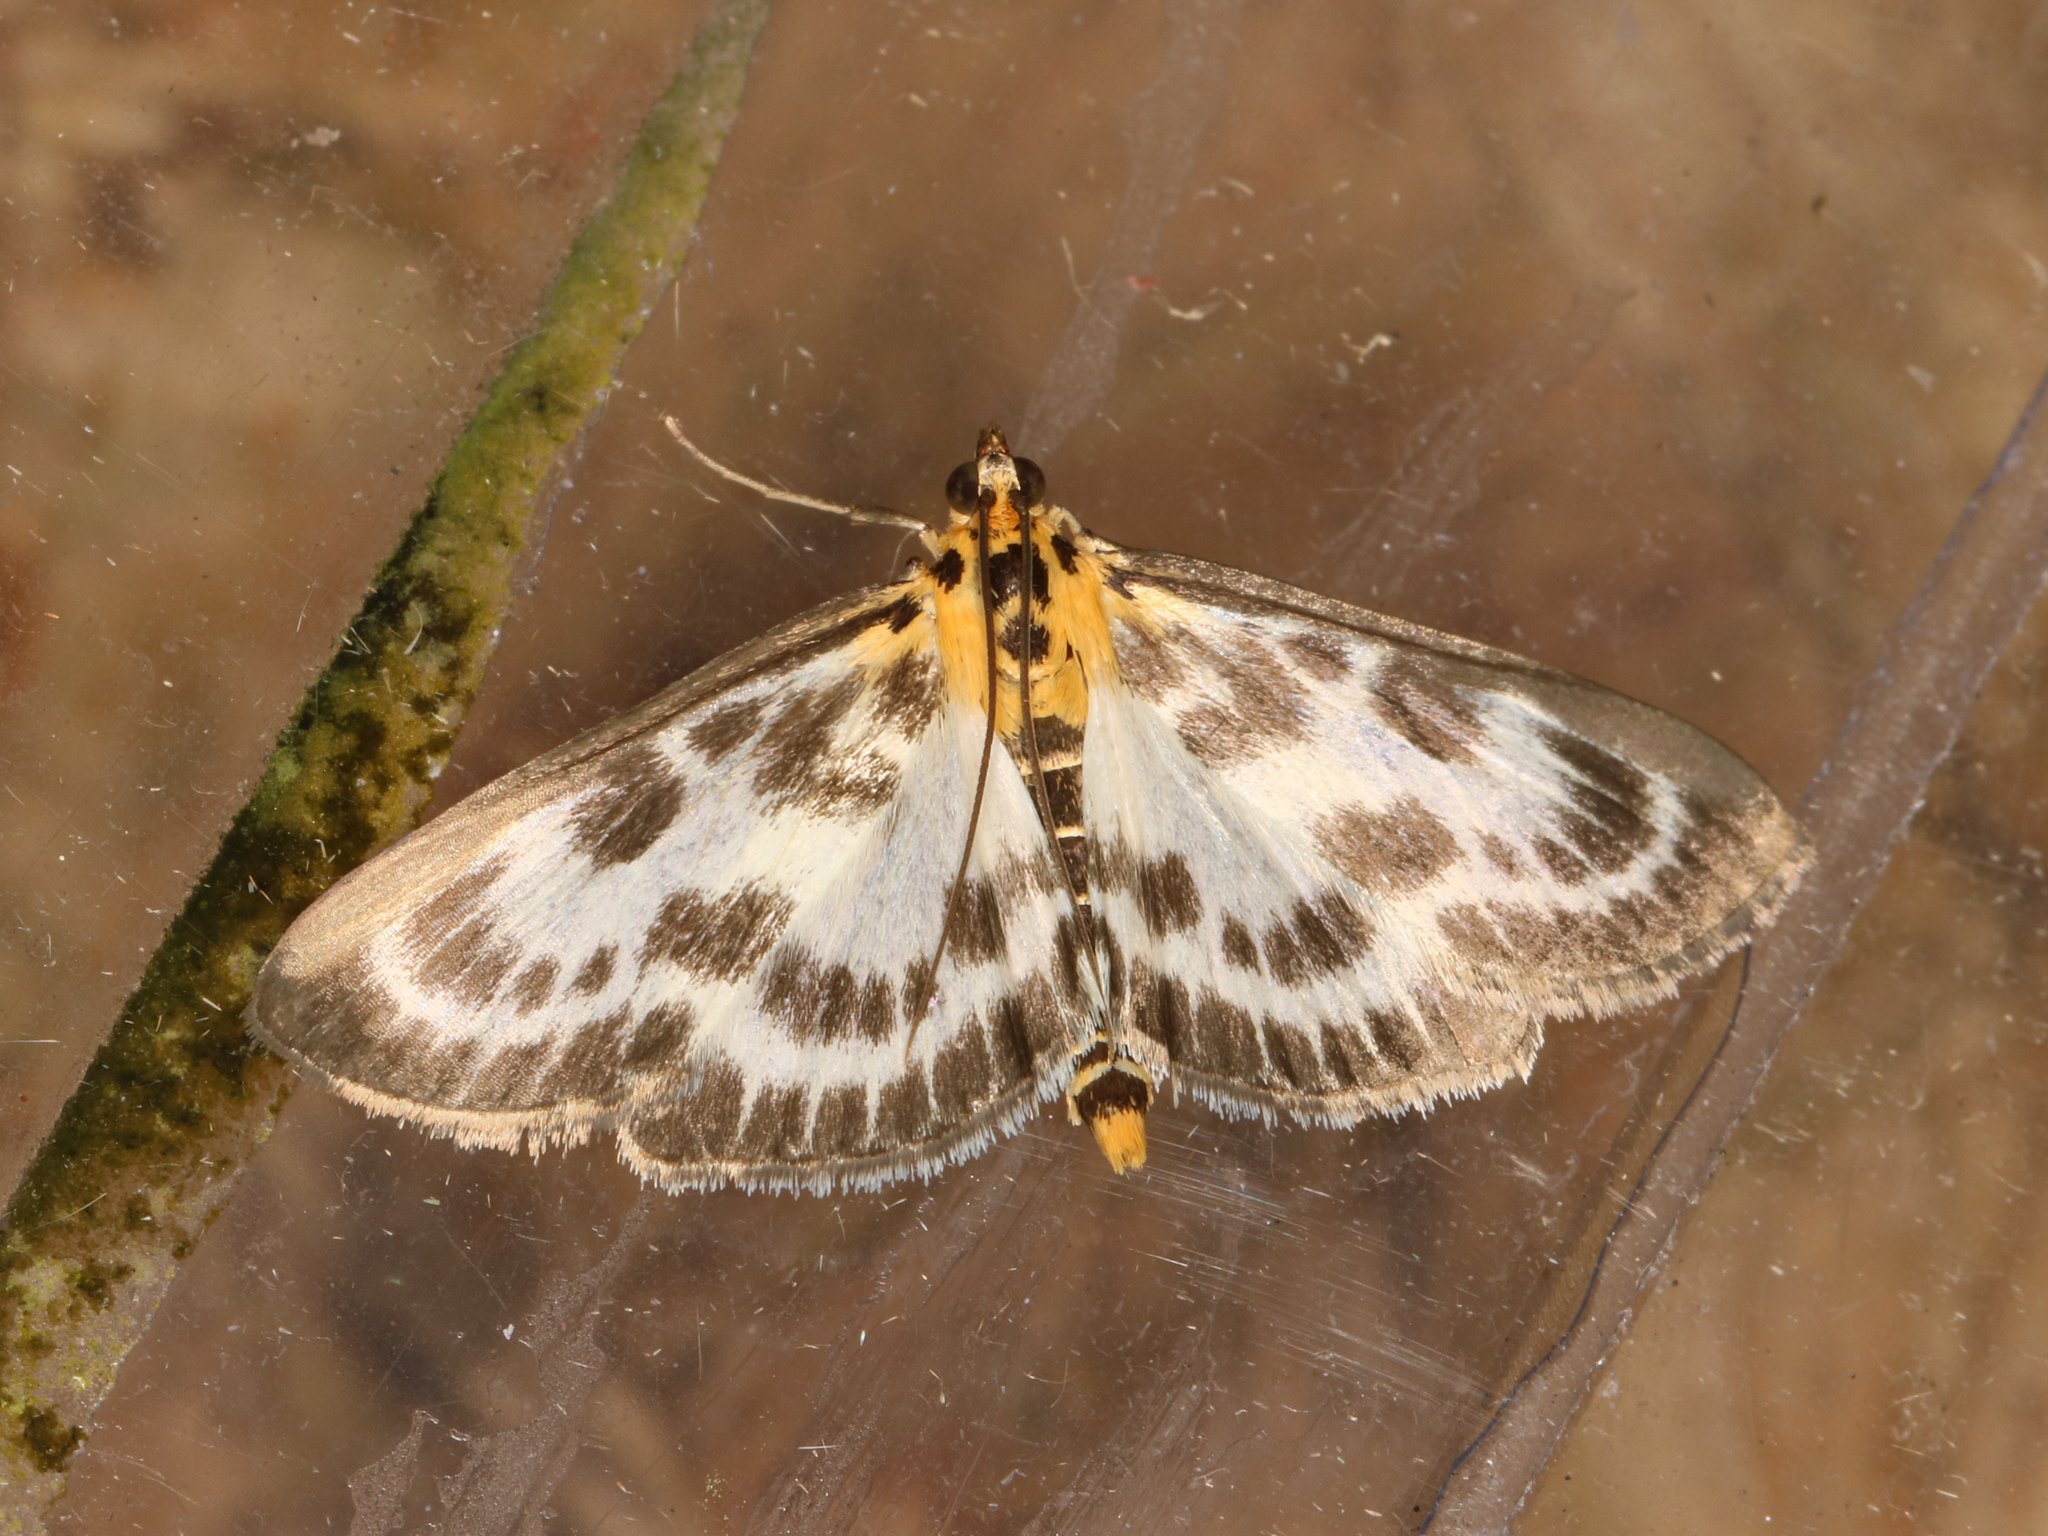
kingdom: Animalia
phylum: Arthropoda
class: Insecta
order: Lepidoptera
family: Crambidae
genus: Anania
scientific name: Anania hortulata
